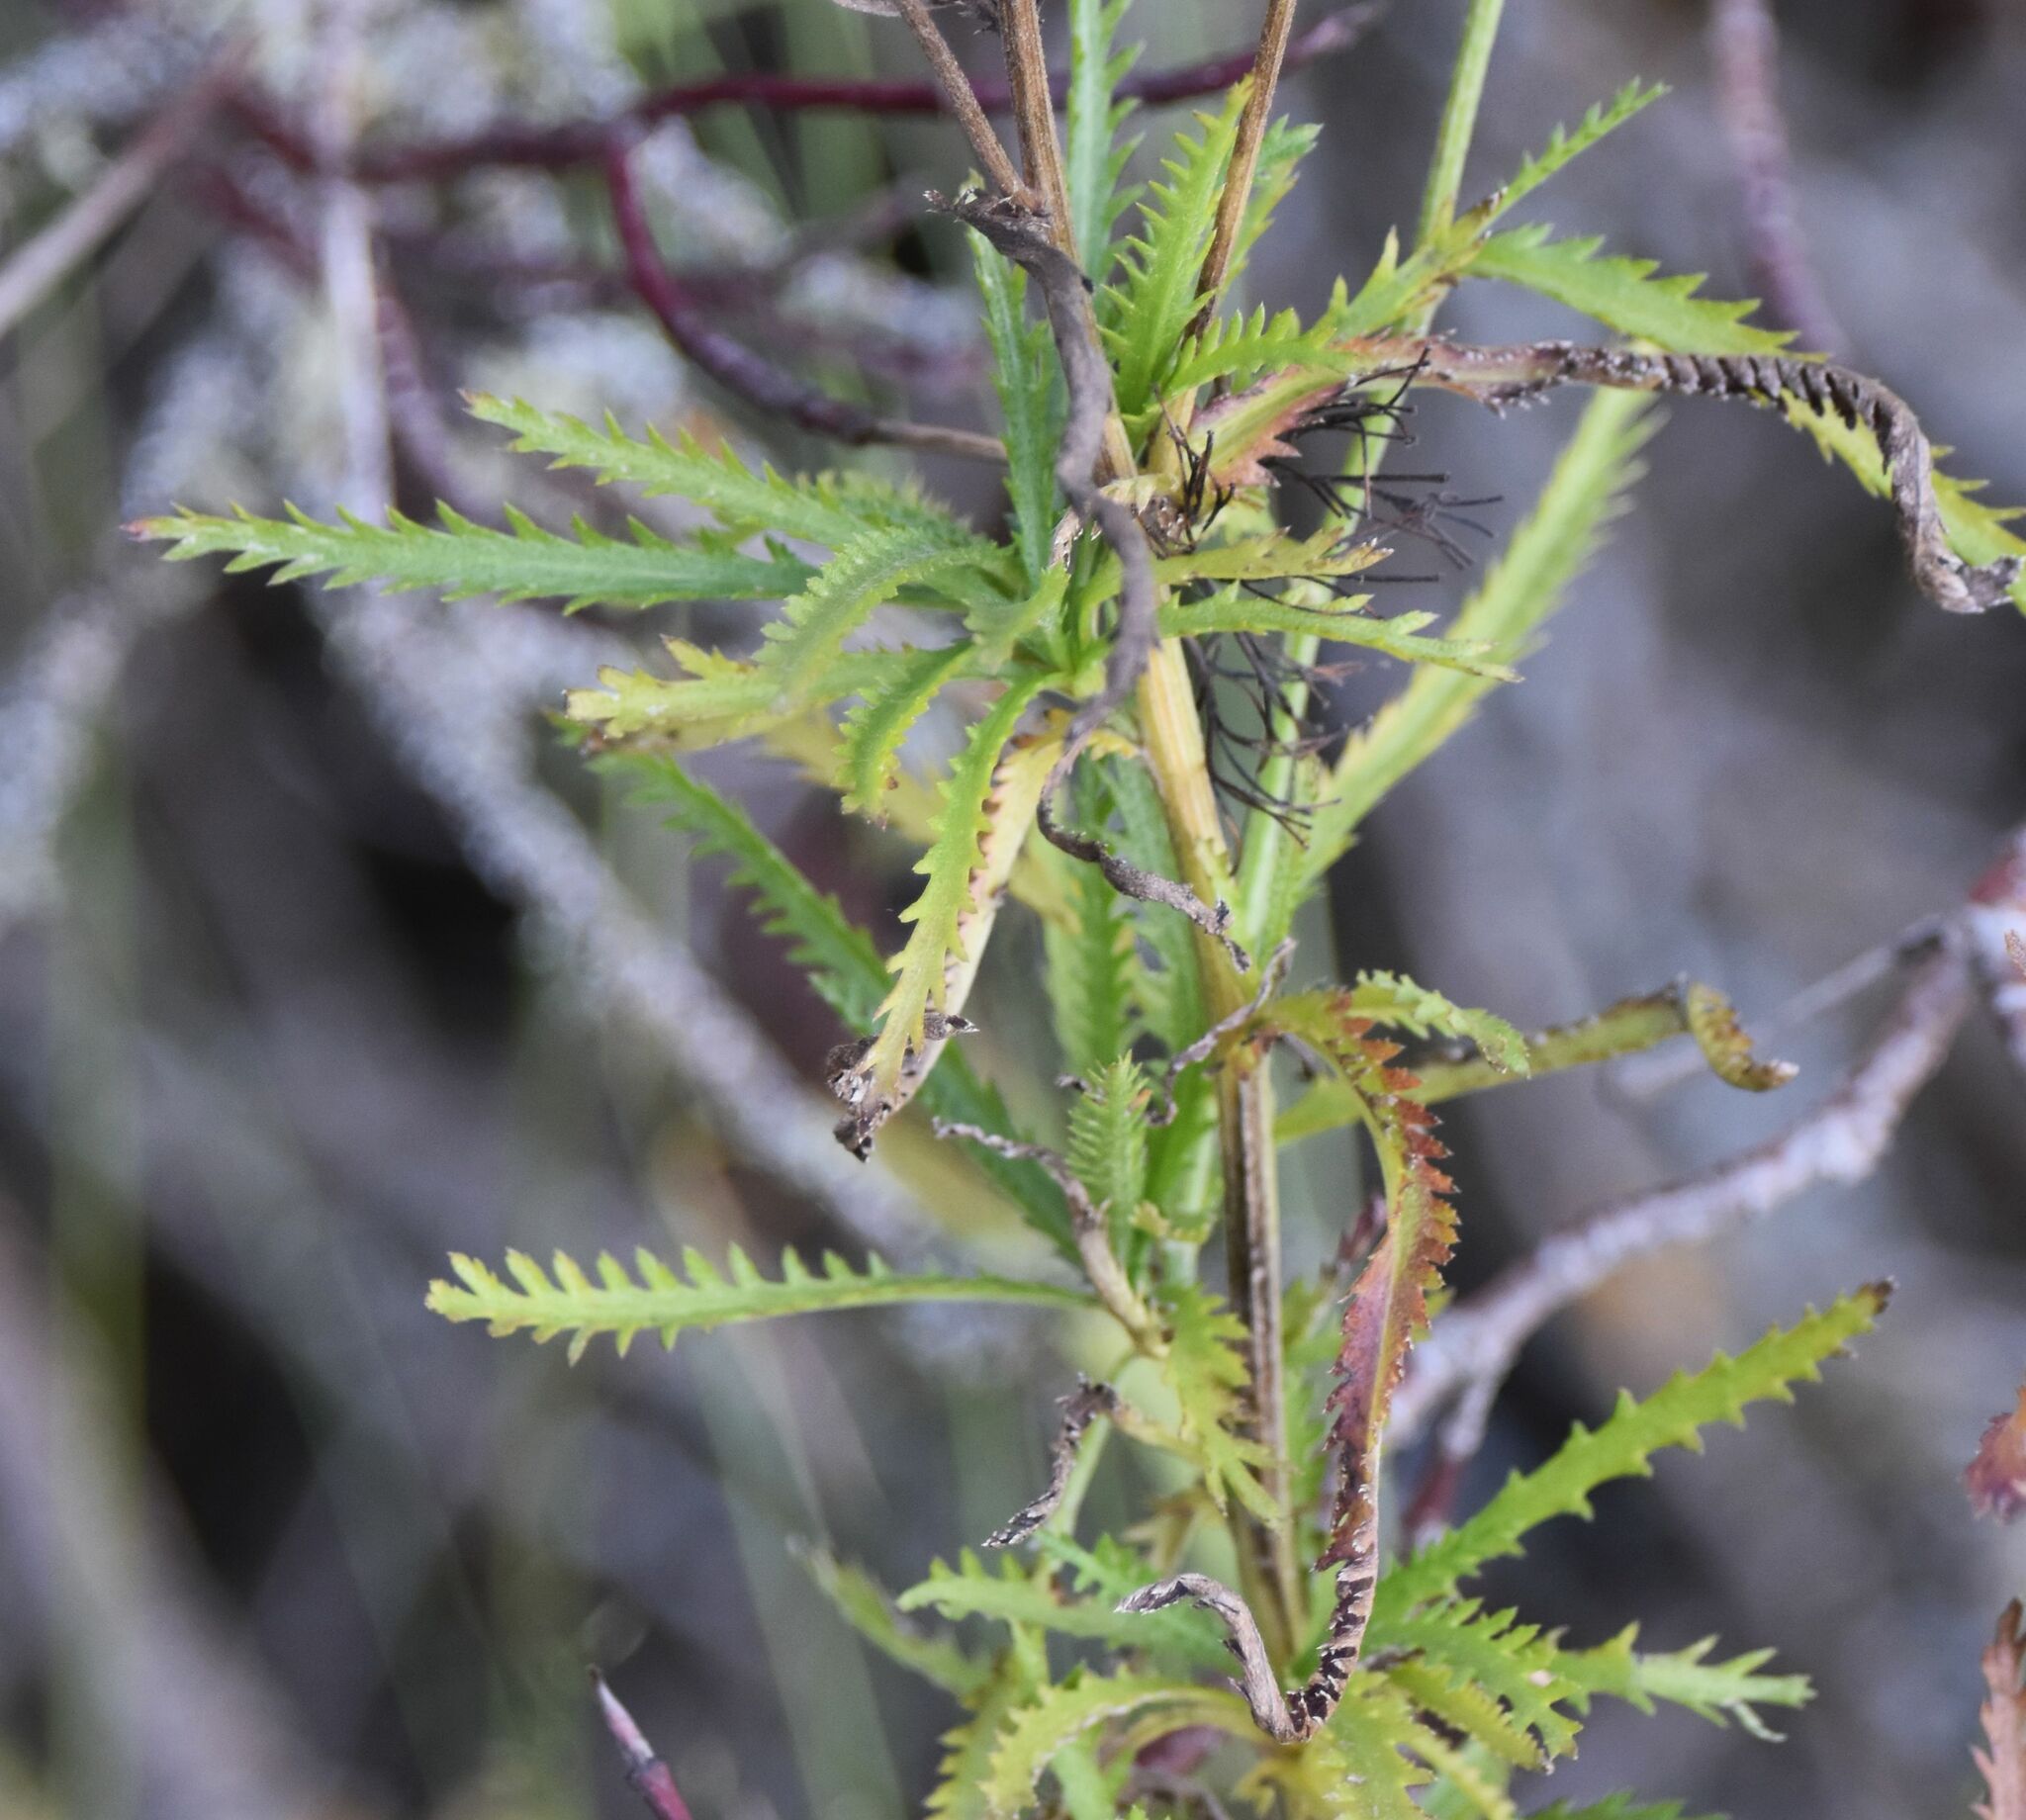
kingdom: Plantae
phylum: Tracheophyta
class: Magnoliopsida
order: Asterales
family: Asteraceae
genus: Achillea
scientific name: Achillea alpina
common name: Siberian yarrow
